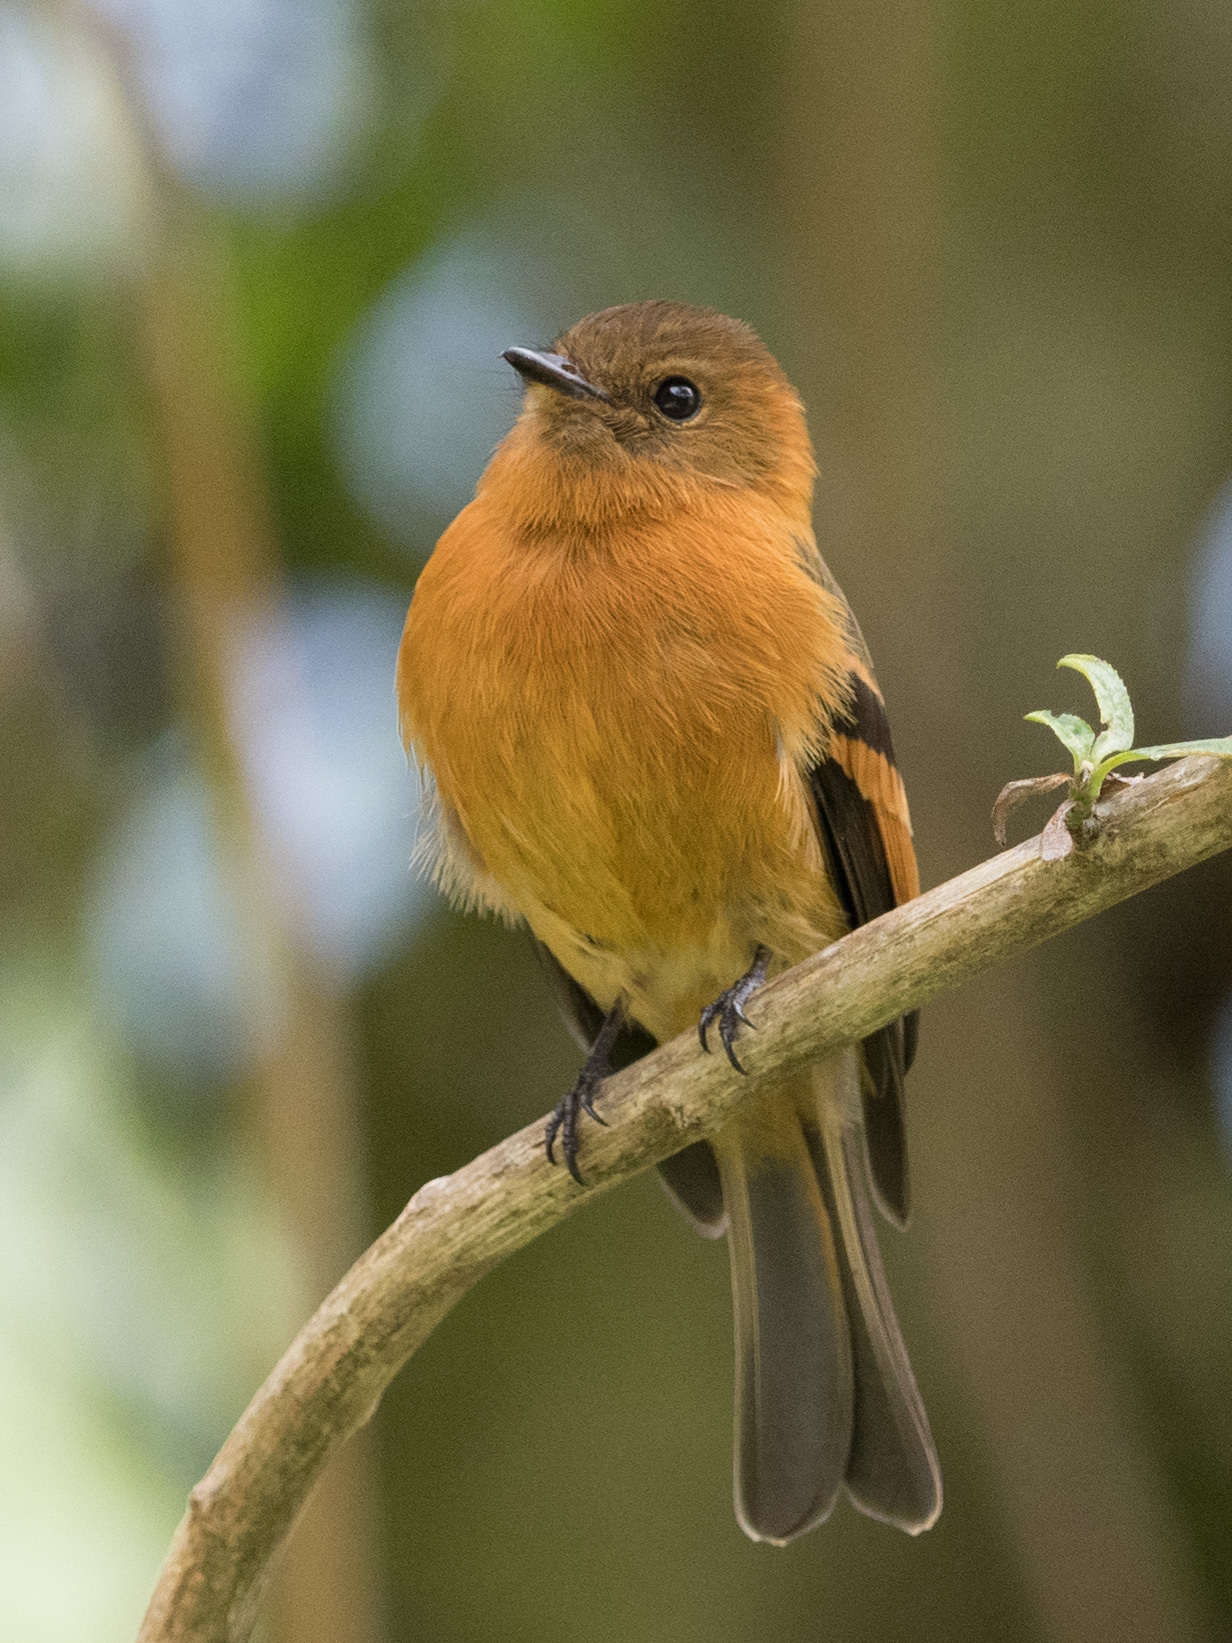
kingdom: Animalia
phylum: Chordata
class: Aves
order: Passeriformes
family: Tyrannidae
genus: Pyrrhomyias
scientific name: Pyrrhomyias cinnamomeus
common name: Cinnamon flycatcher
